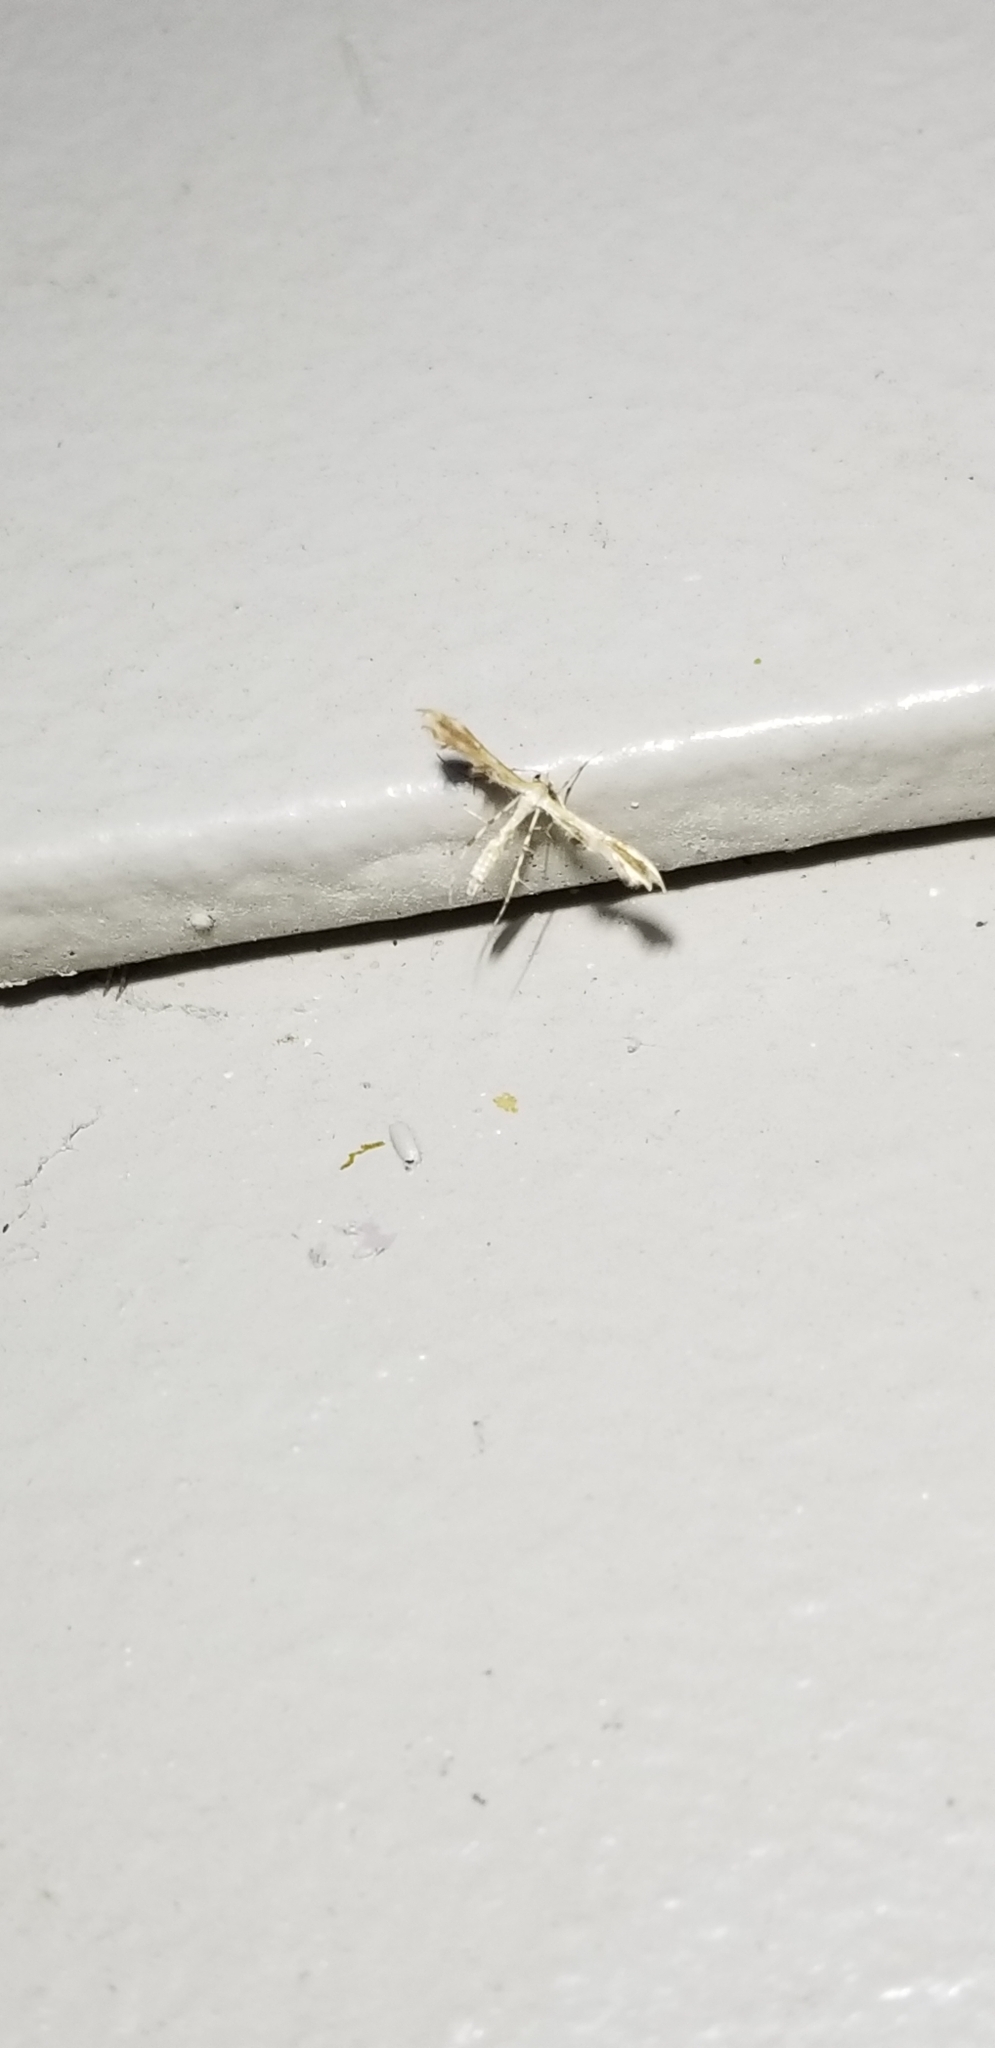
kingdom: Animalia
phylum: Arthropoda
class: Insecta
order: Lepidoptera
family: Pterophoridae
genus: Sphenarches
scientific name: Sphenarches anisodactylus
